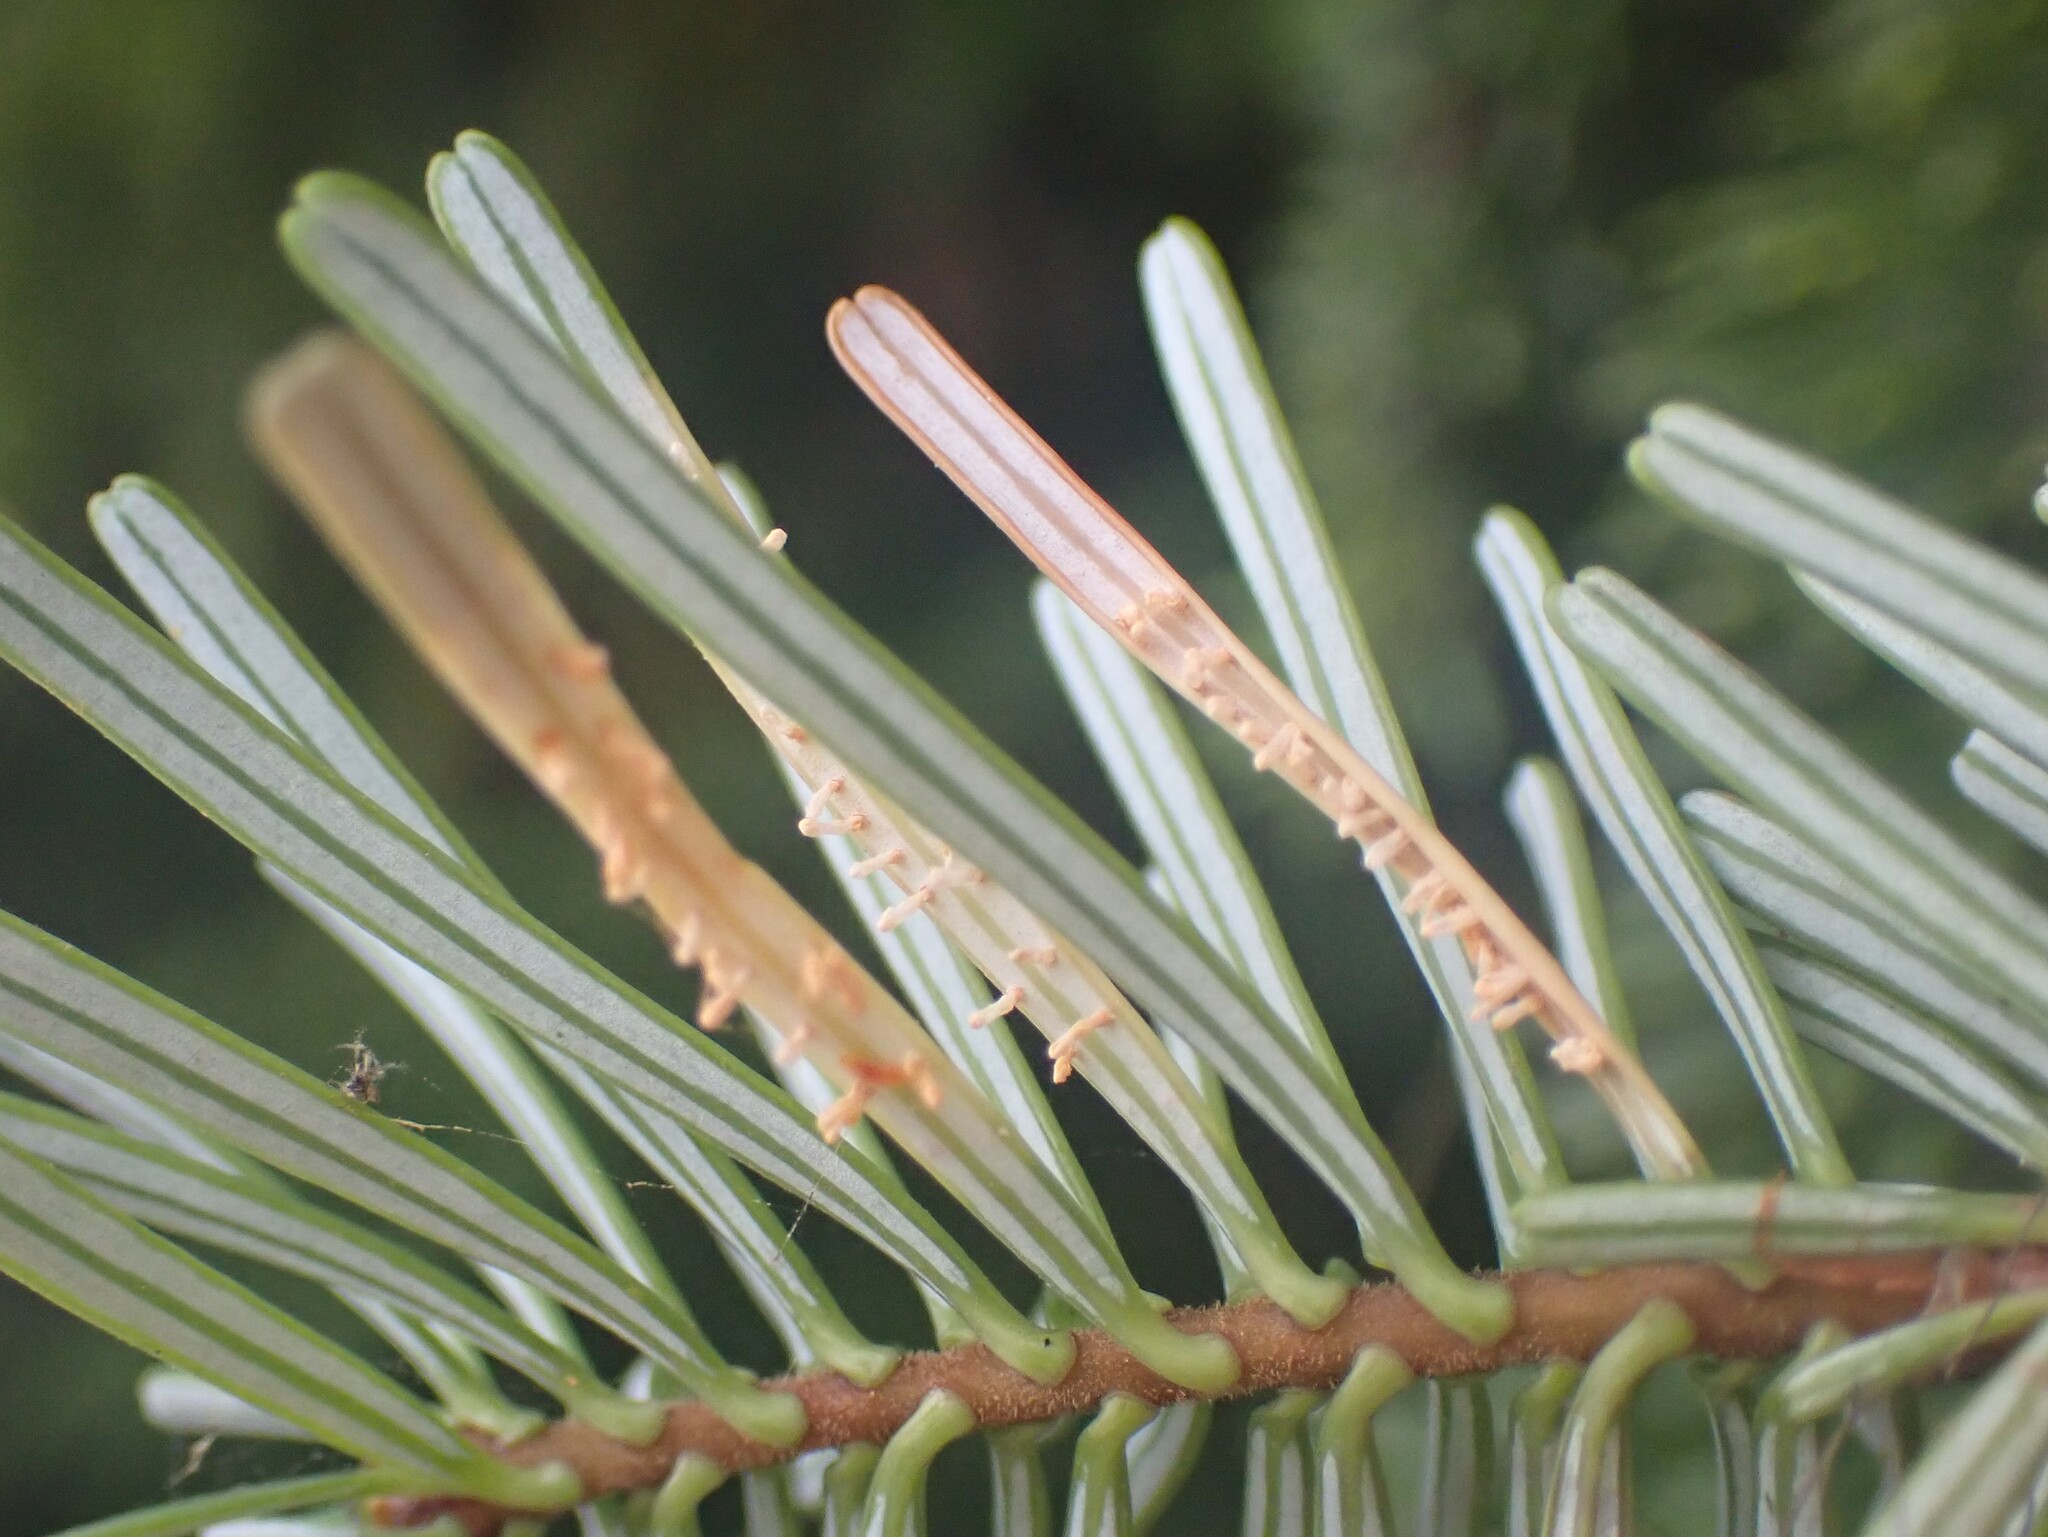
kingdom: Fungi
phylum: Basidiomycota
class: Pucciniomycetes
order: Pucciniales
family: Pucciniastraceae
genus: Calyptospora
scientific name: Calyptospora
